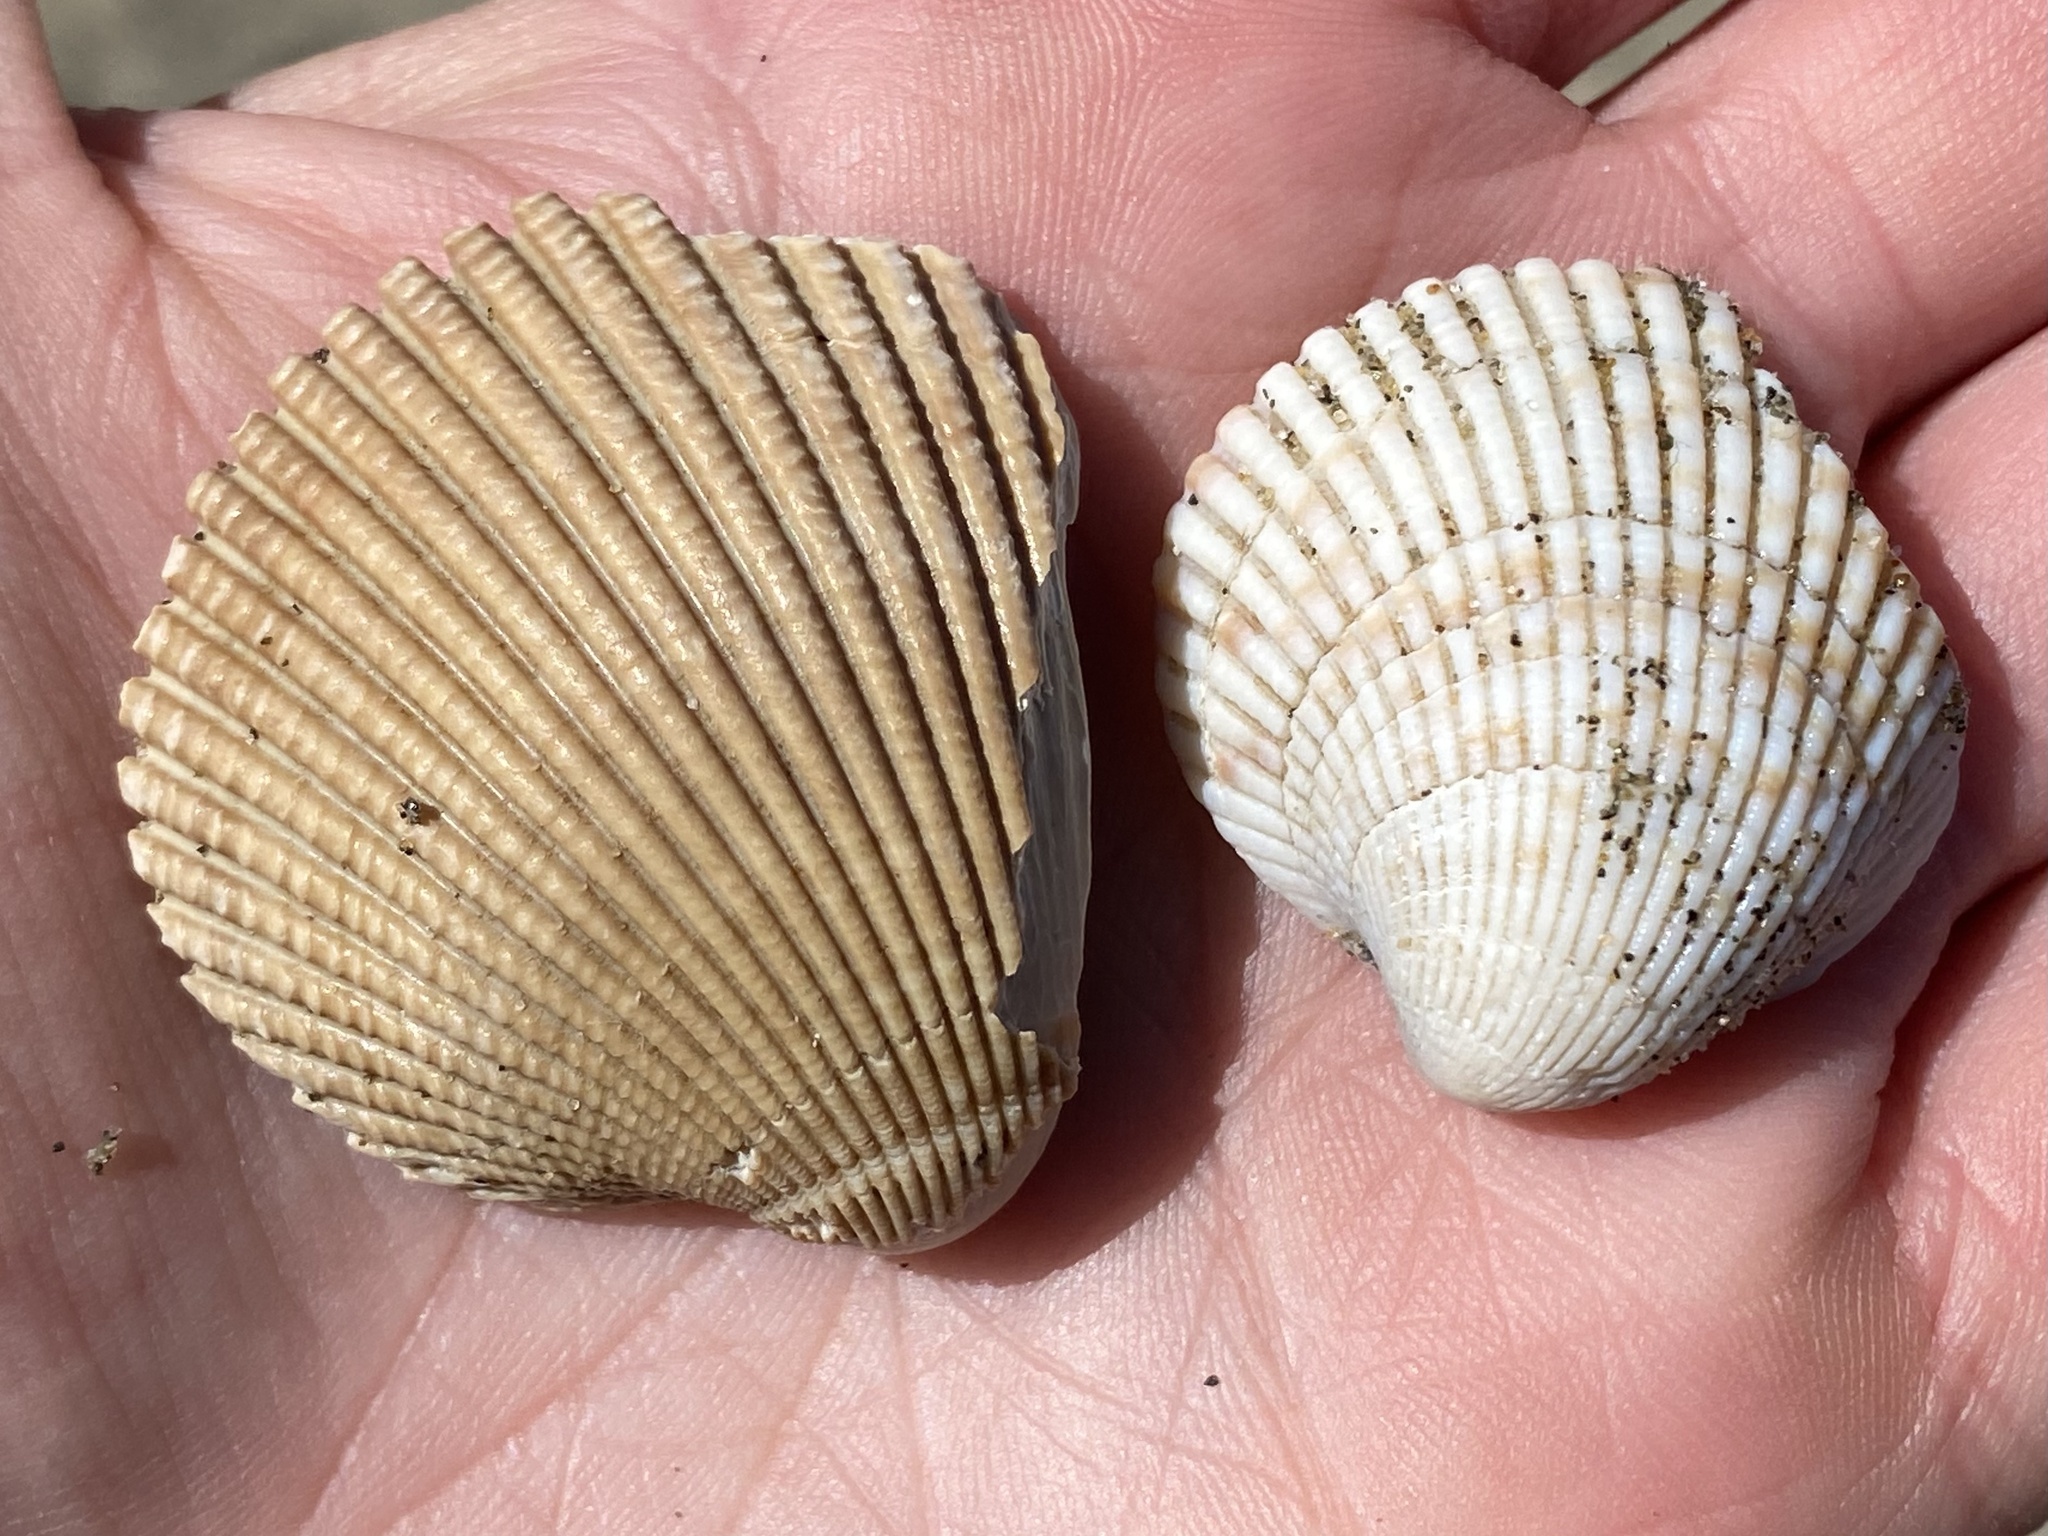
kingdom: Animalia
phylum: Mollusca
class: Bivalvia
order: Cardiida
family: Cardiidae
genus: Clinocardium
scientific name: Clinocardium nuttallii
